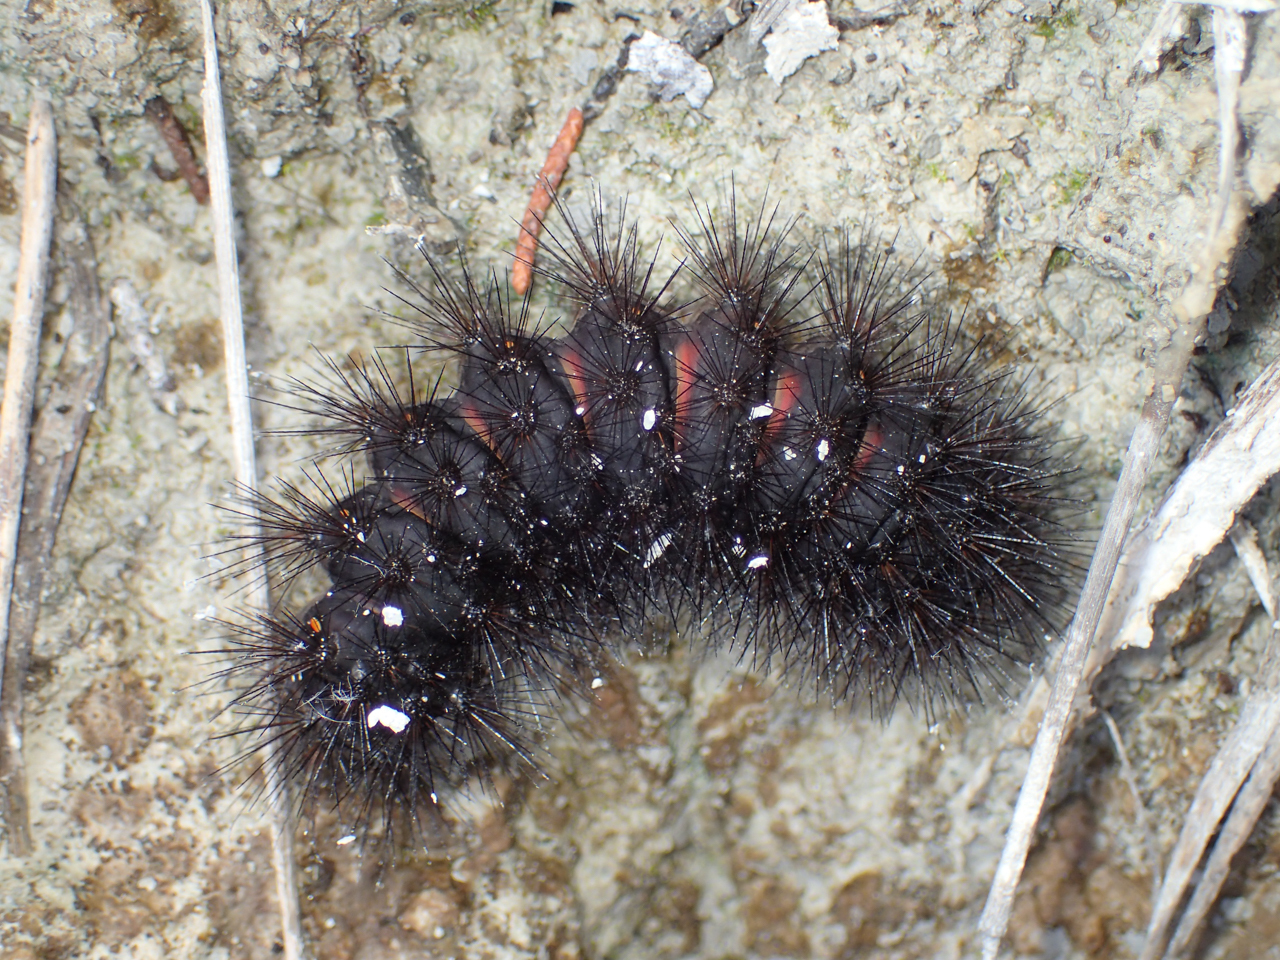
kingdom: Animalia
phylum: Arthropoda
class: Insecta
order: Lepidoptera
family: Erebidae
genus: Hypercompe
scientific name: Hypercompe scribonia
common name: Giant leopard moth
